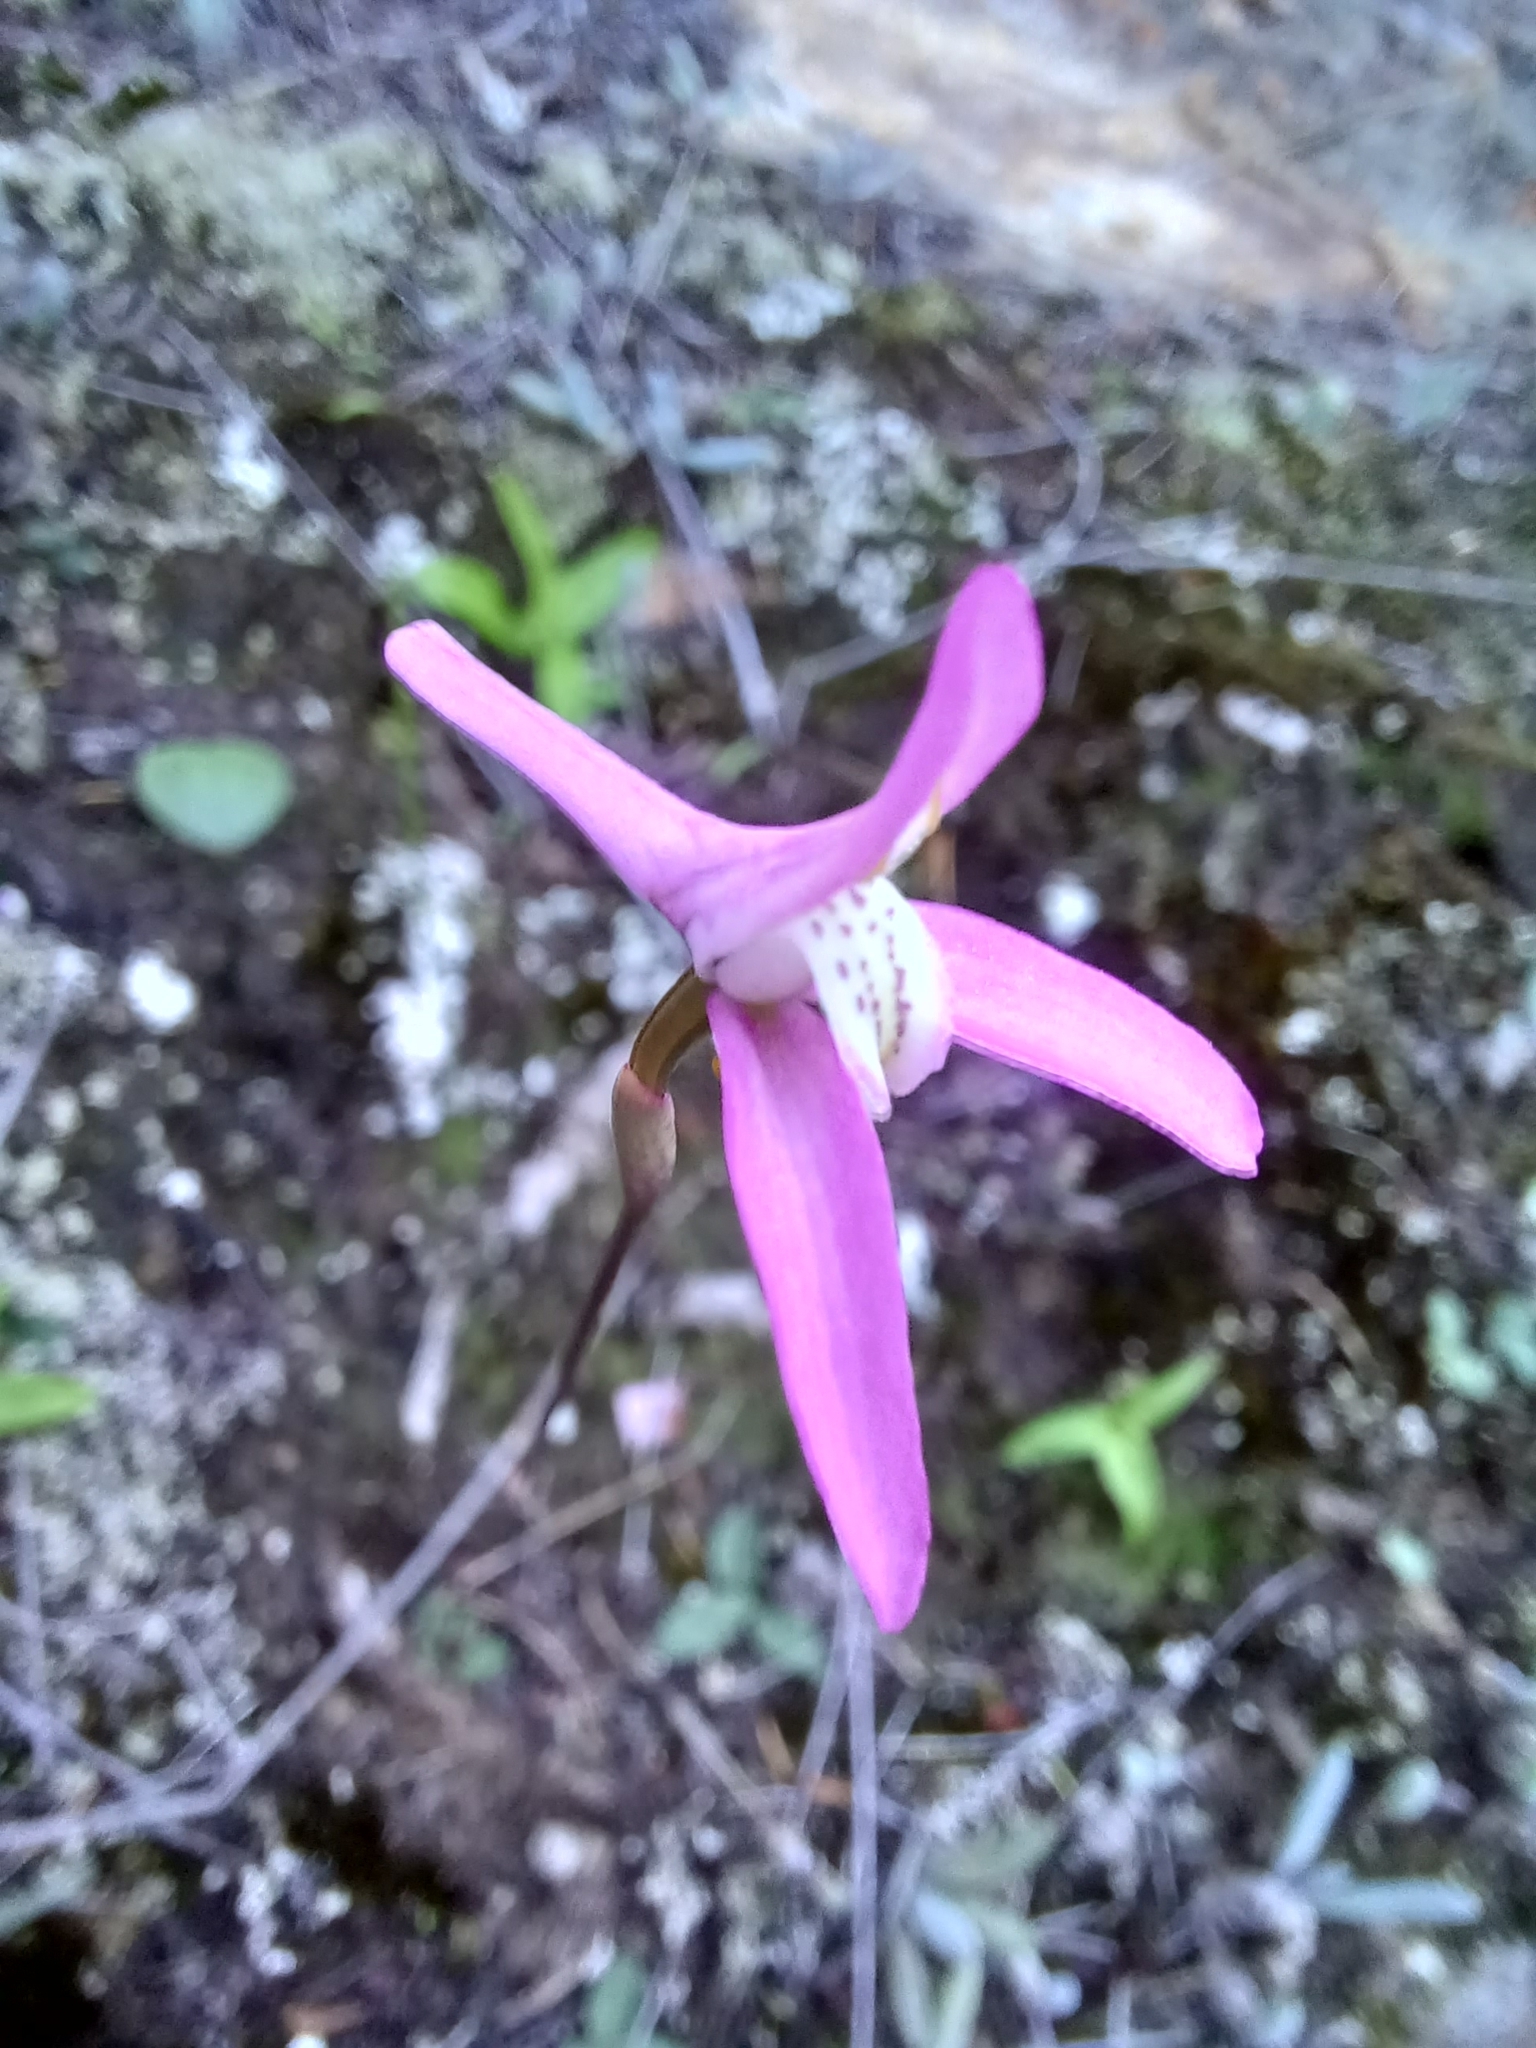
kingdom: Plantae
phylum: Tracheophyta
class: Liliopsida
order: Asparagales
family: Orchidaceae
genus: Disa
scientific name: Disa bifida
